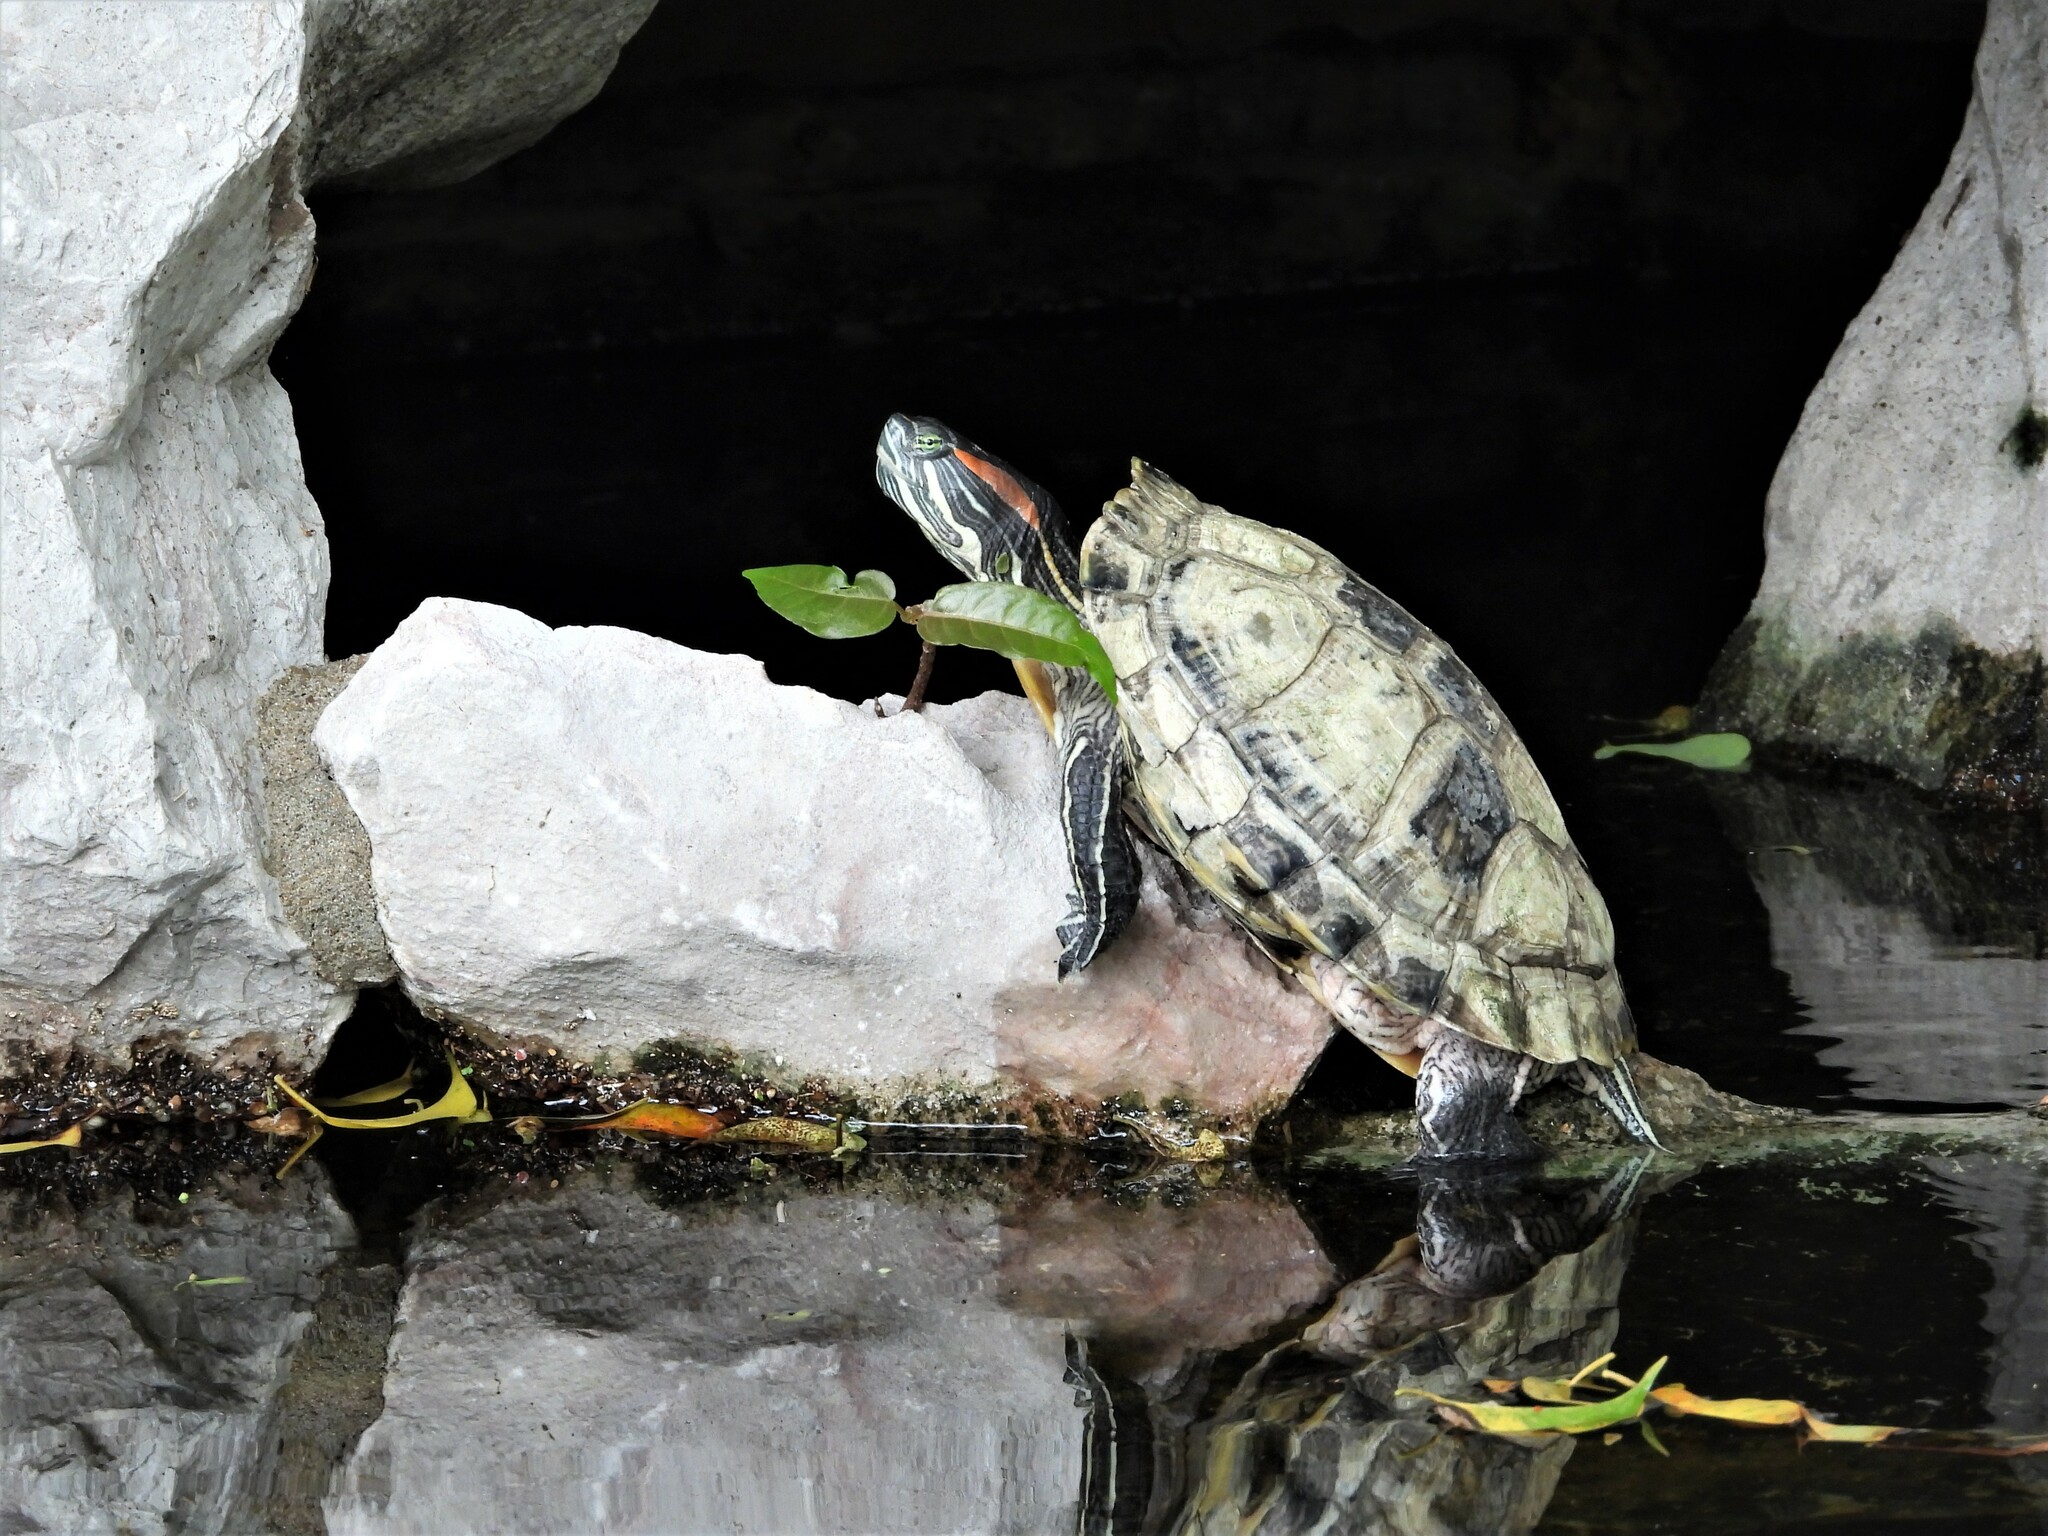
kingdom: Animalia
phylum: Chordata
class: Testudines
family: Emydidae
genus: Trachemys
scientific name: Trachemys scripta
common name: Slider
